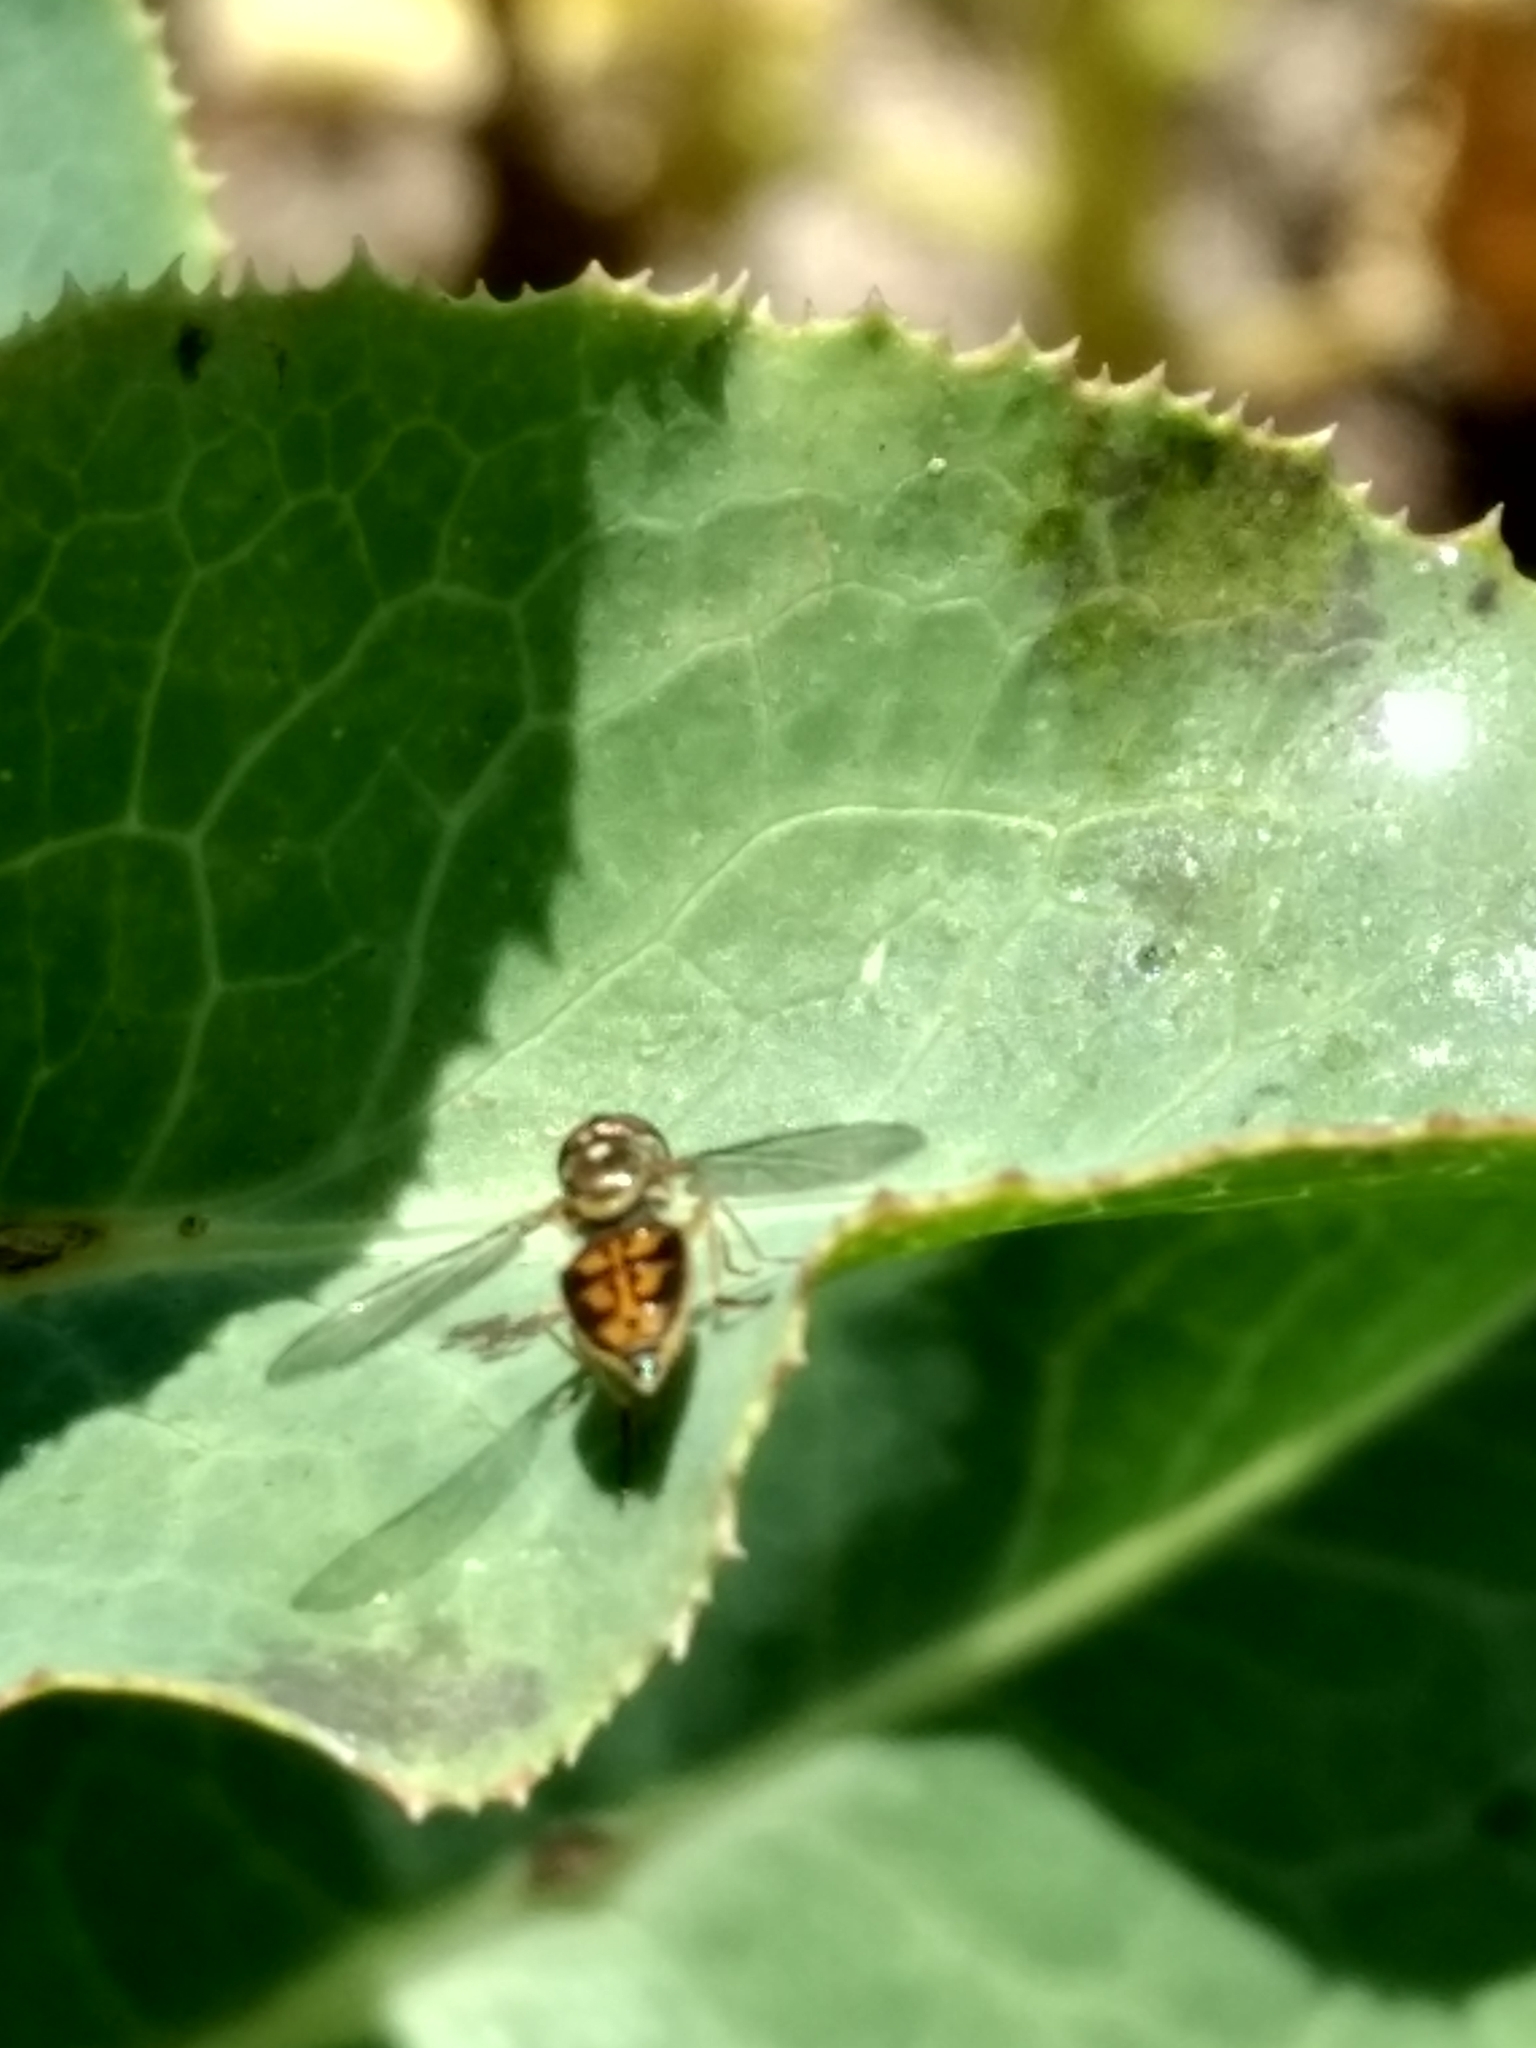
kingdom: Animalia
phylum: Arthropoda
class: Insecta
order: Diptera
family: Syrphidae
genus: Toxomerus
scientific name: Toxomerus marginatus
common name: Syrphid fly
